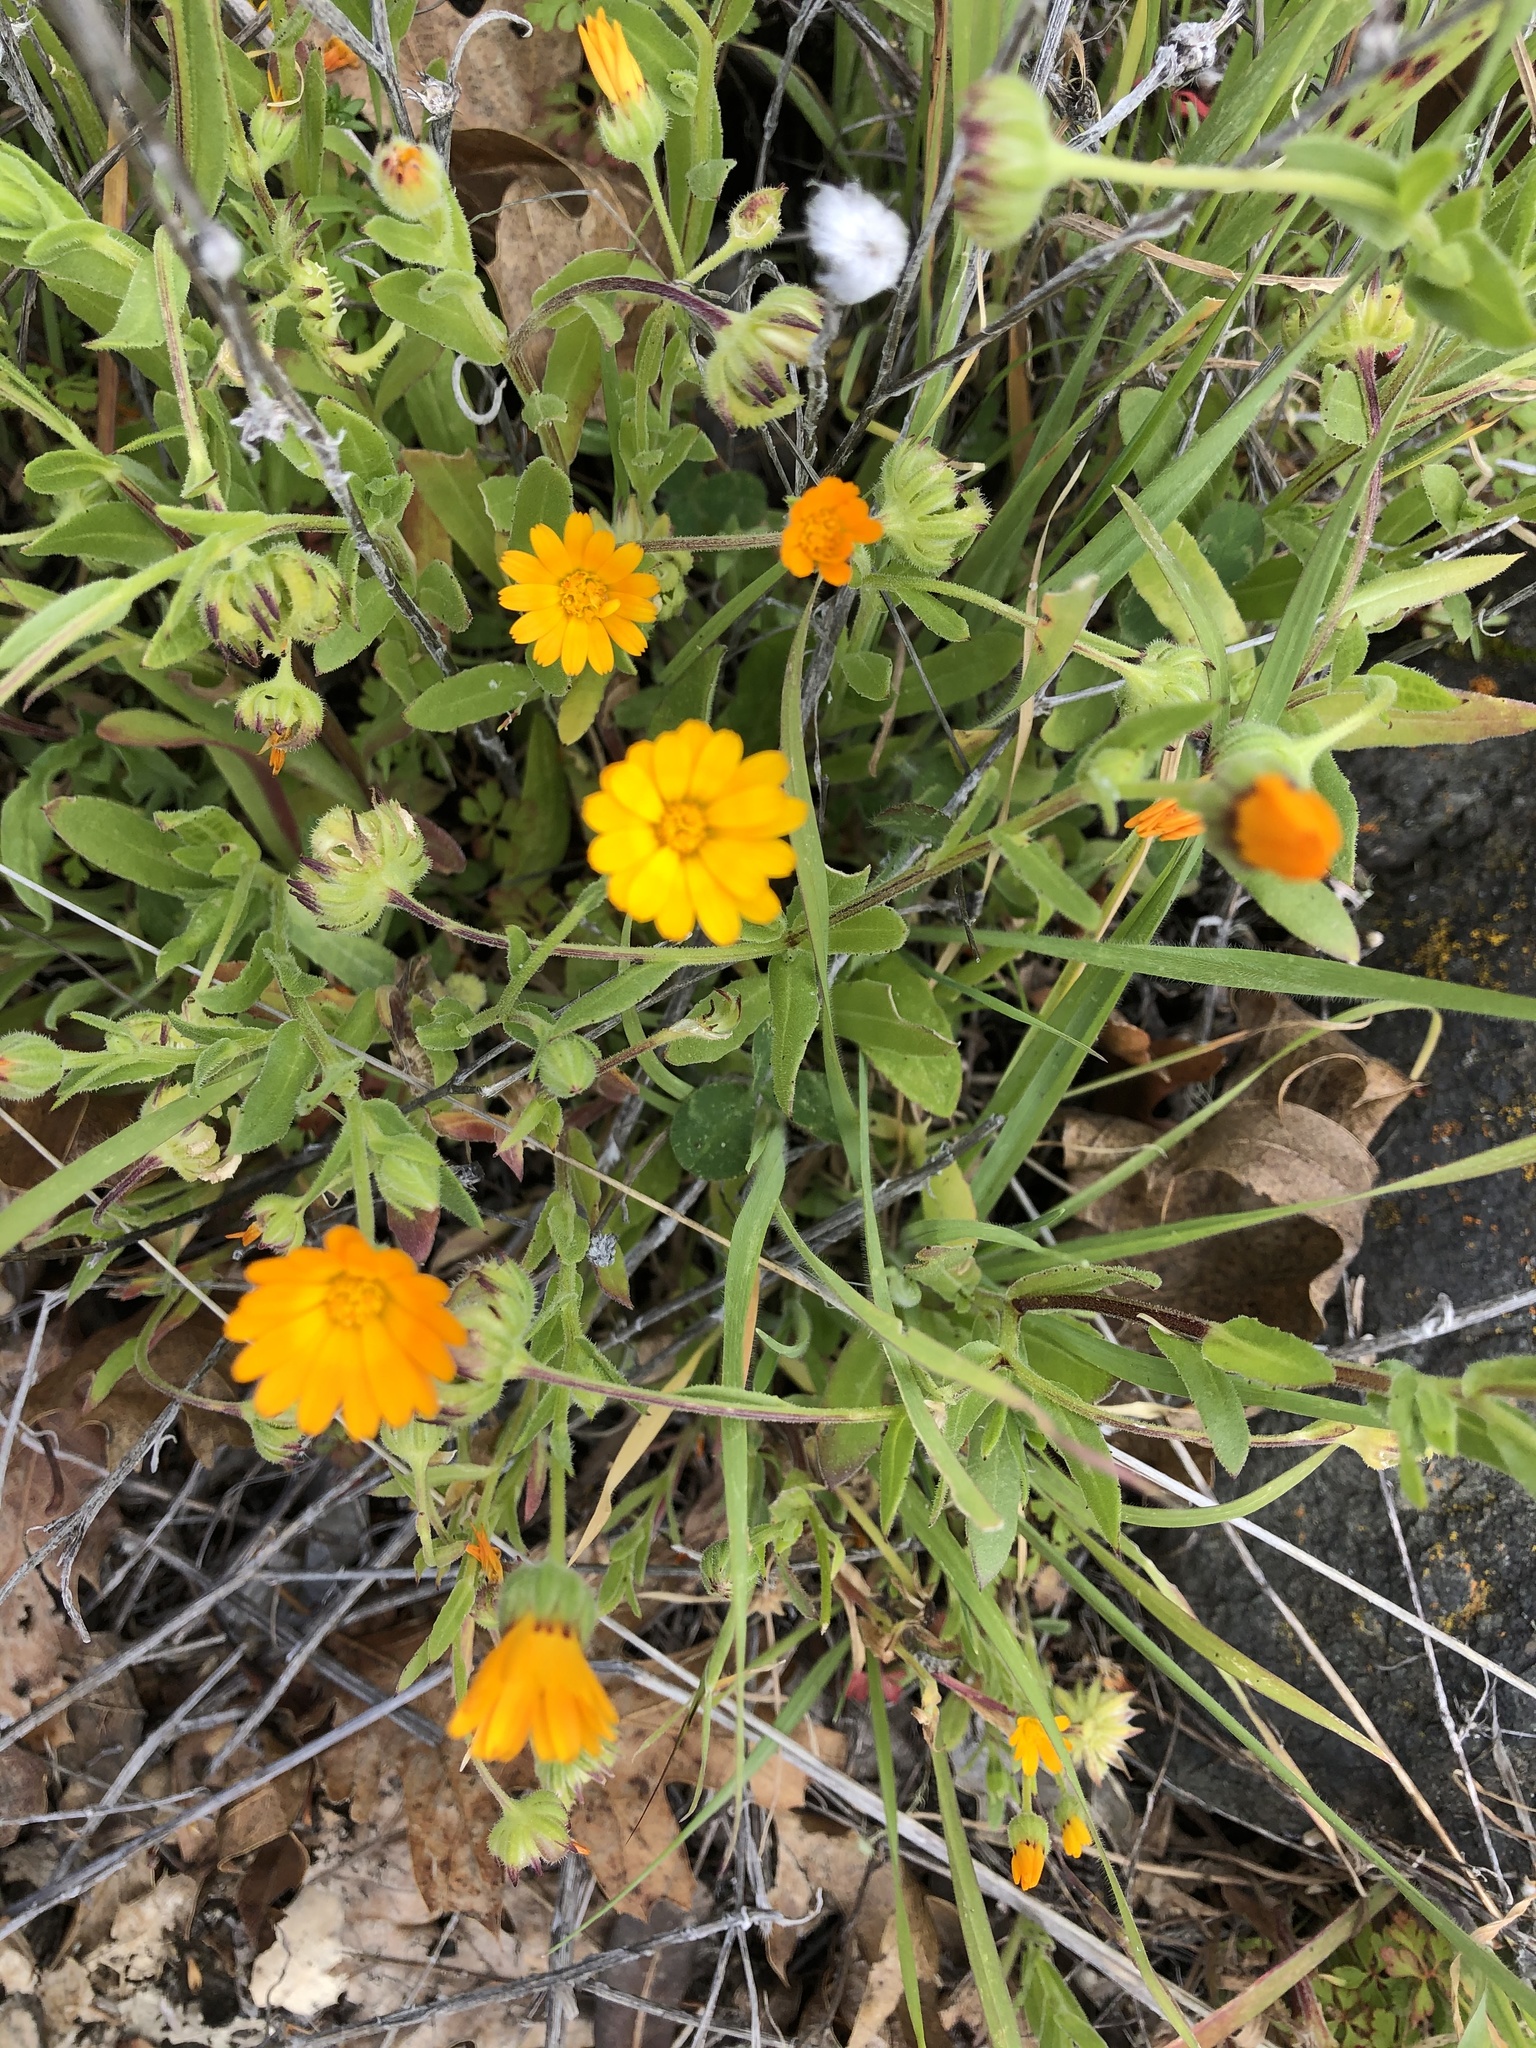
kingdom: Plantae
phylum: Tracheophyta
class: Magnoliopsida
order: Asterales
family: Asteraceae
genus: Calendula
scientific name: Calendula arvensis
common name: Field marigold
